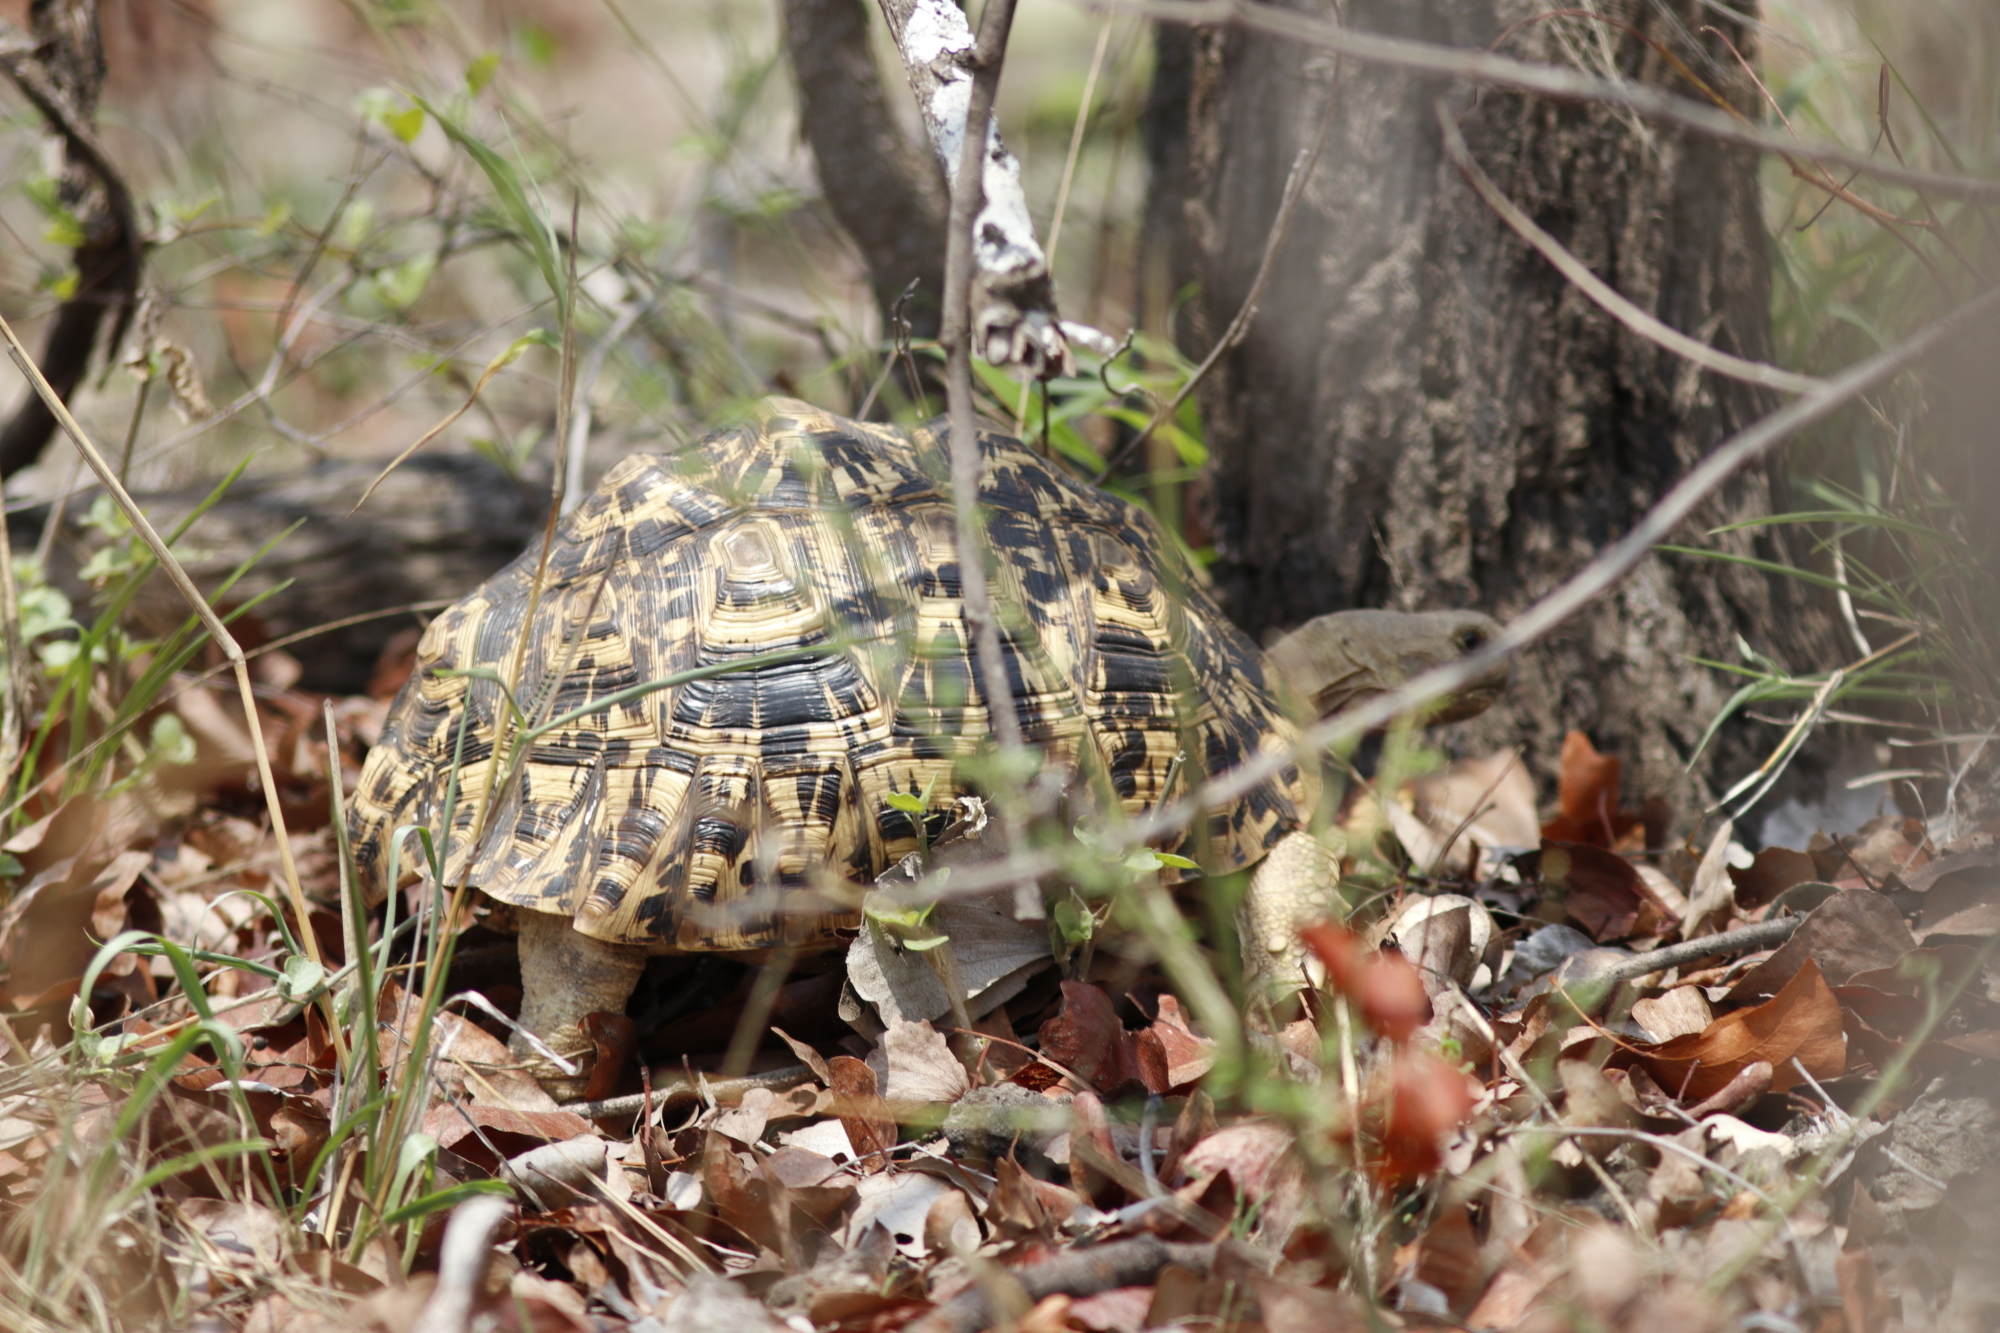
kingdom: Animalia
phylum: Chordata
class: Testudines
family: Testudinidae
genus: Stigmochelys
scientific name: Stigmochelys pardalis
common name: Leopard tortoise
